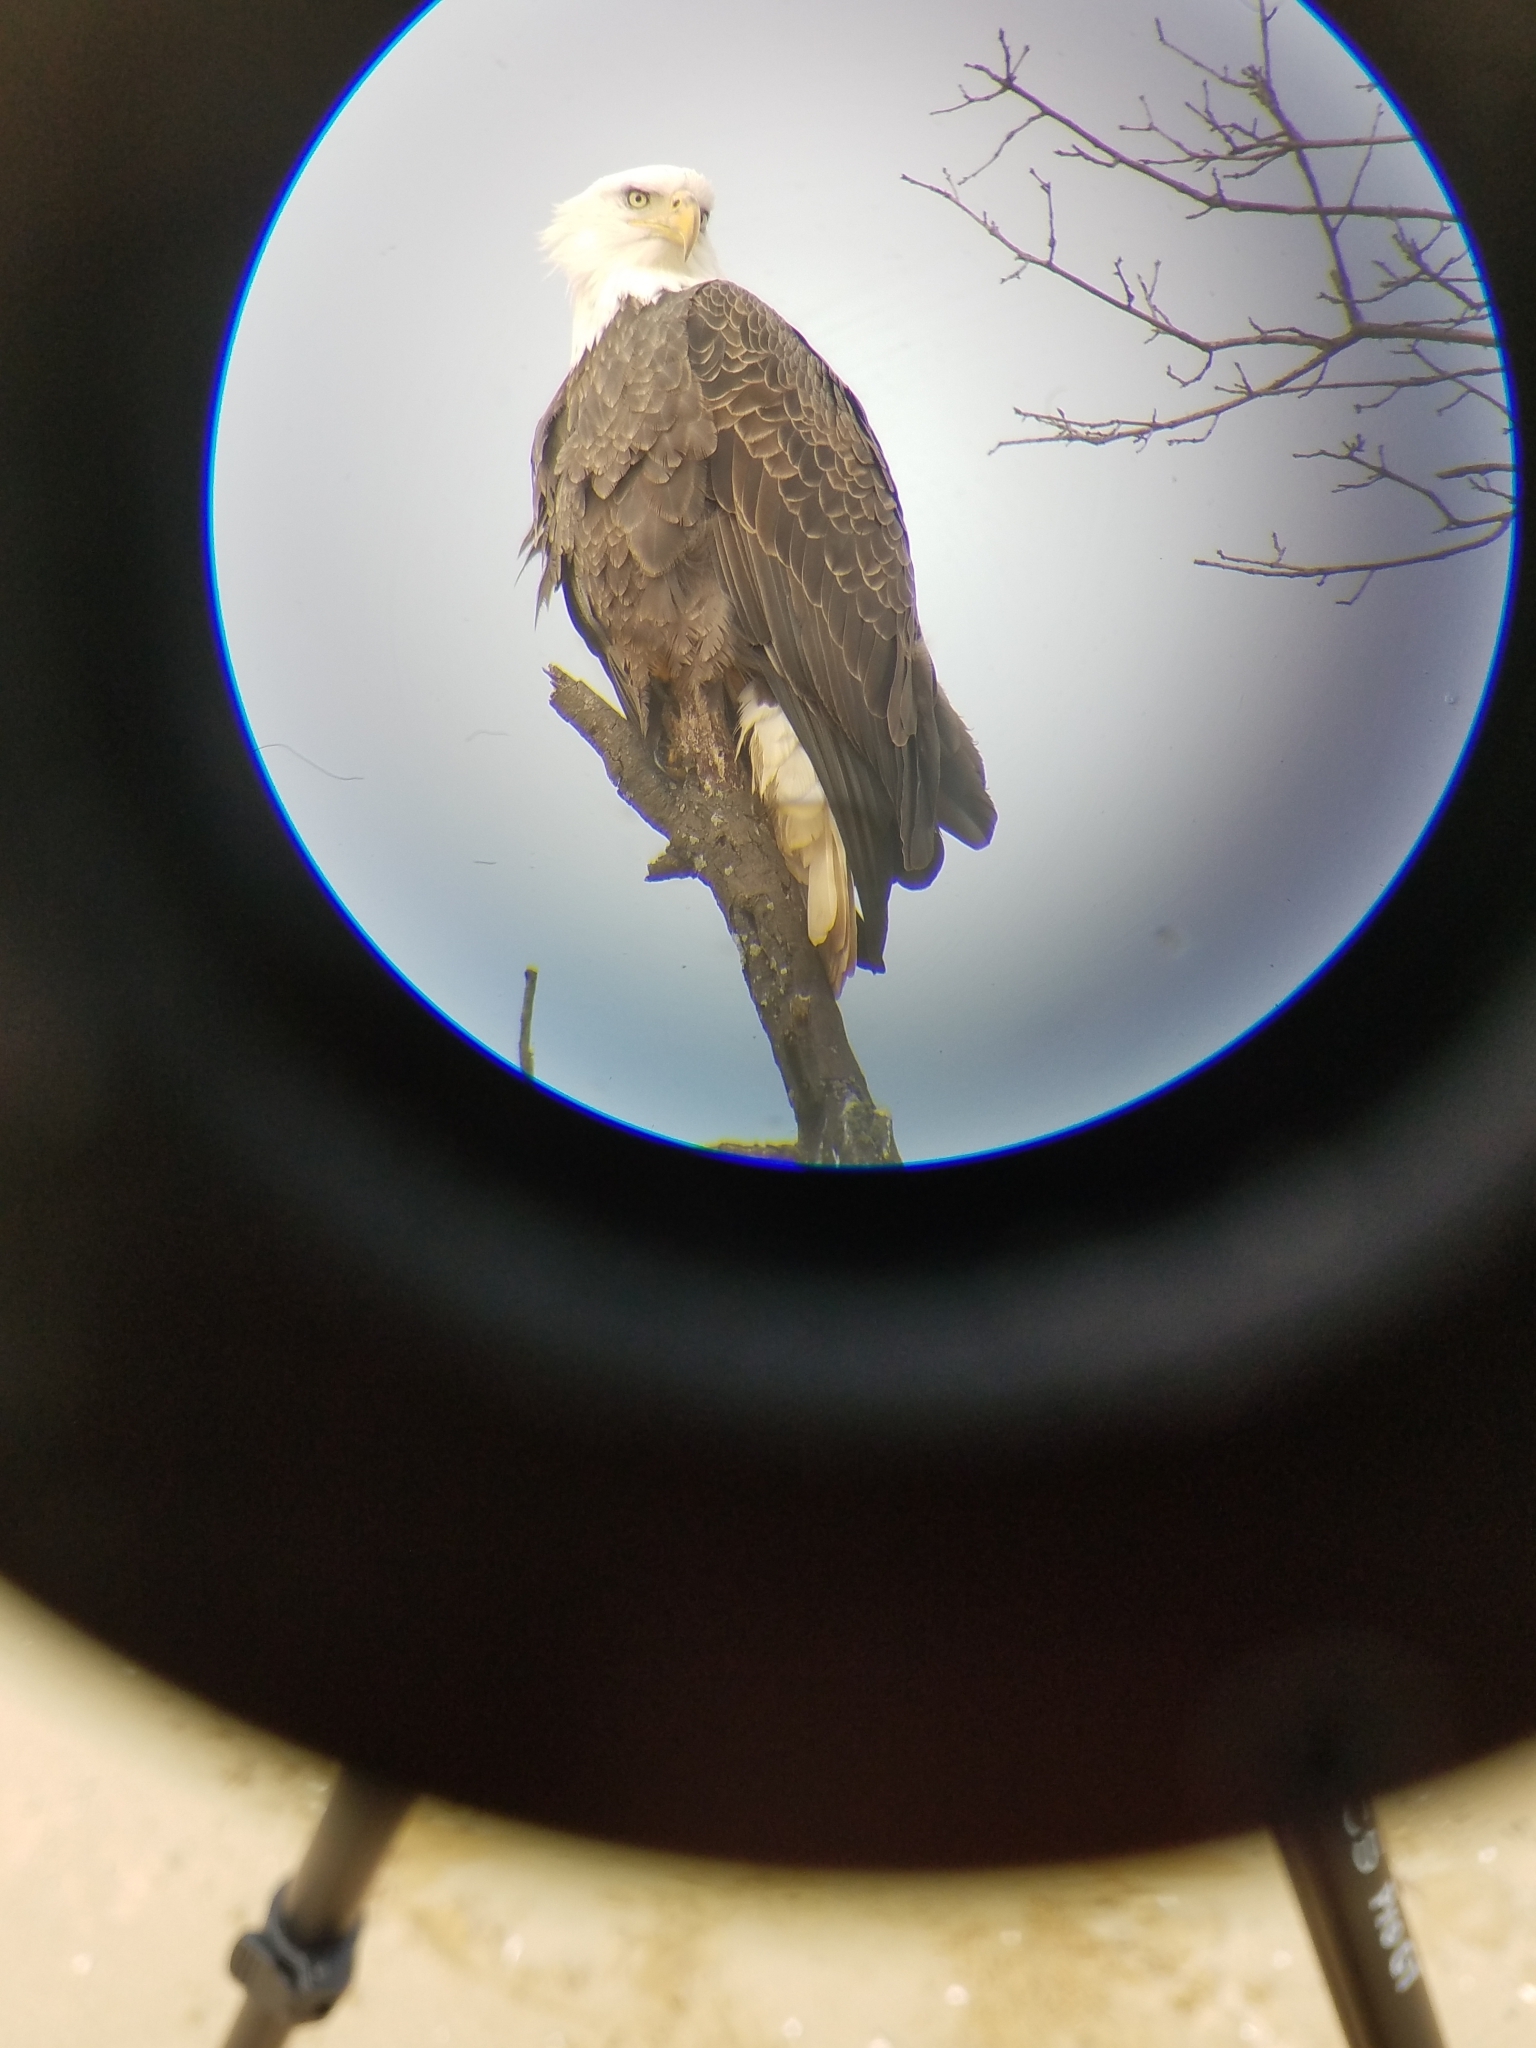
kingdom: Animalia
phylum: Chordata
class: Aves
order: Accipitriformes
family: Accipitridae
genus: Haliaeetus
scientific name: Haliaeetus leucocephalus
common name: Bald eagle
